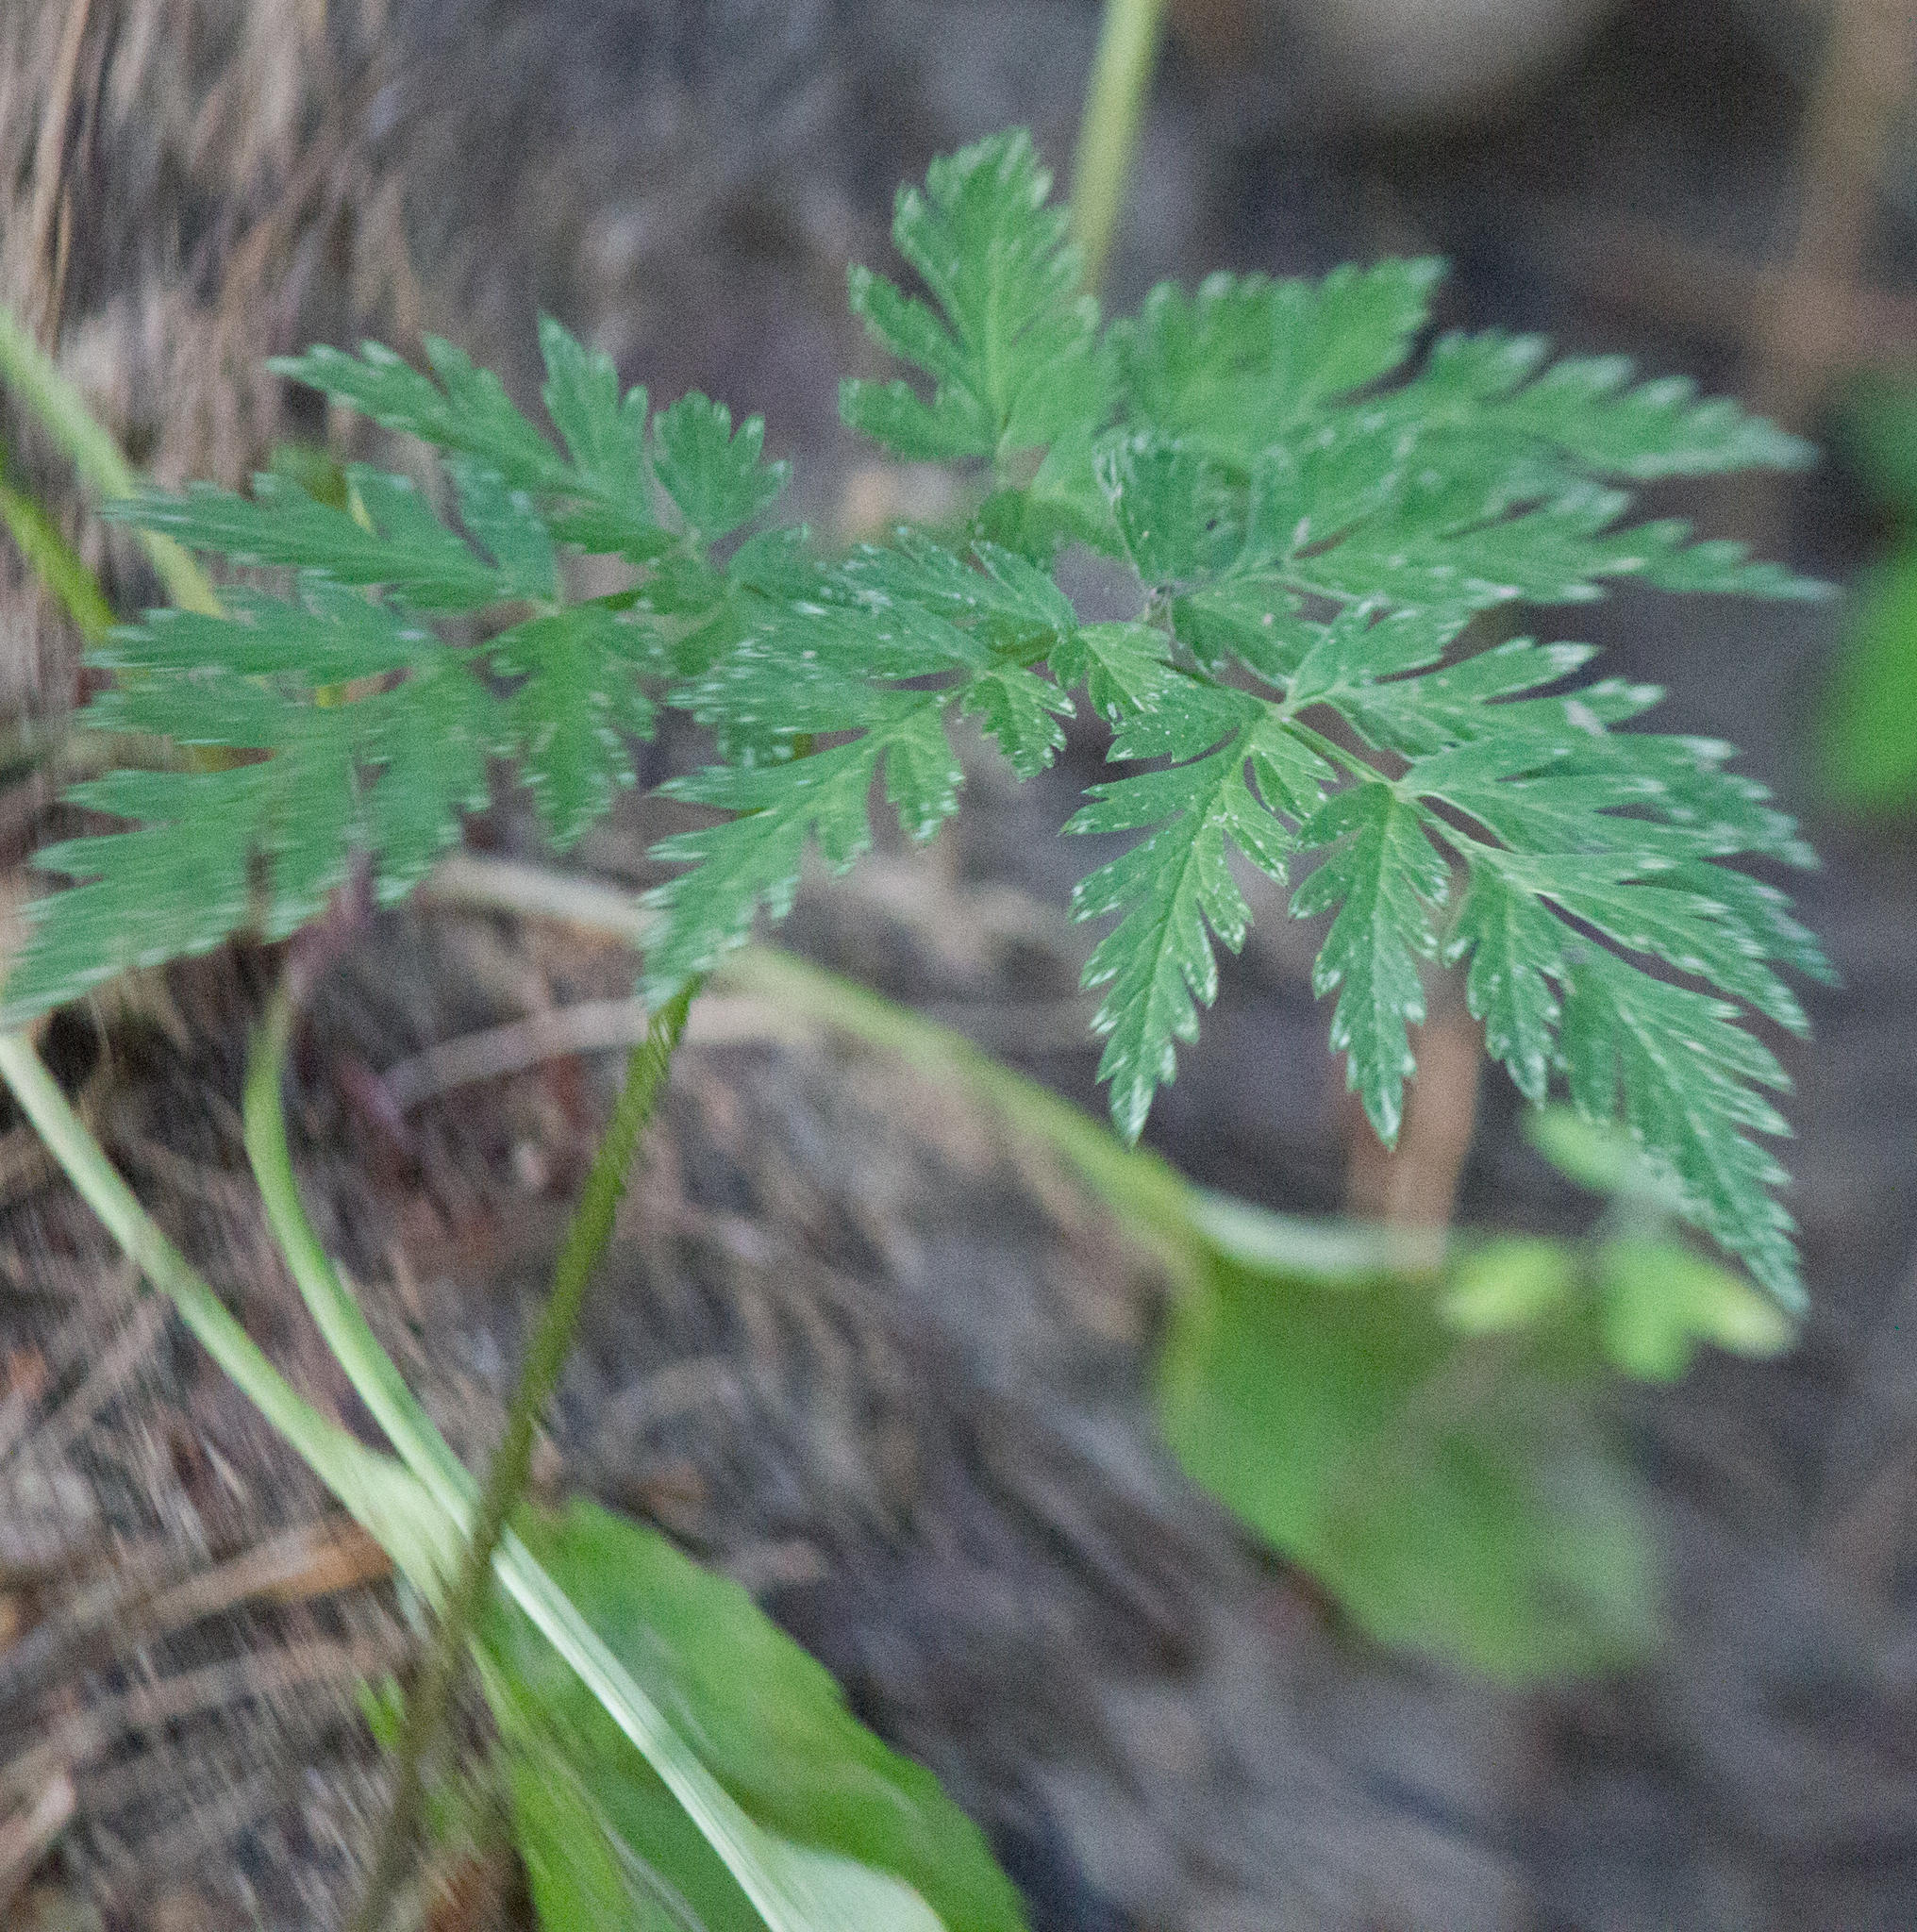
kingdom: Plantae
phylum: Tracheophyta
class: Magnoliopsida
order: Apiales
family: Apiaceae
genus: Anthriscus
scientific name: Anthriscus sylvestris
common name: Cow parsley
